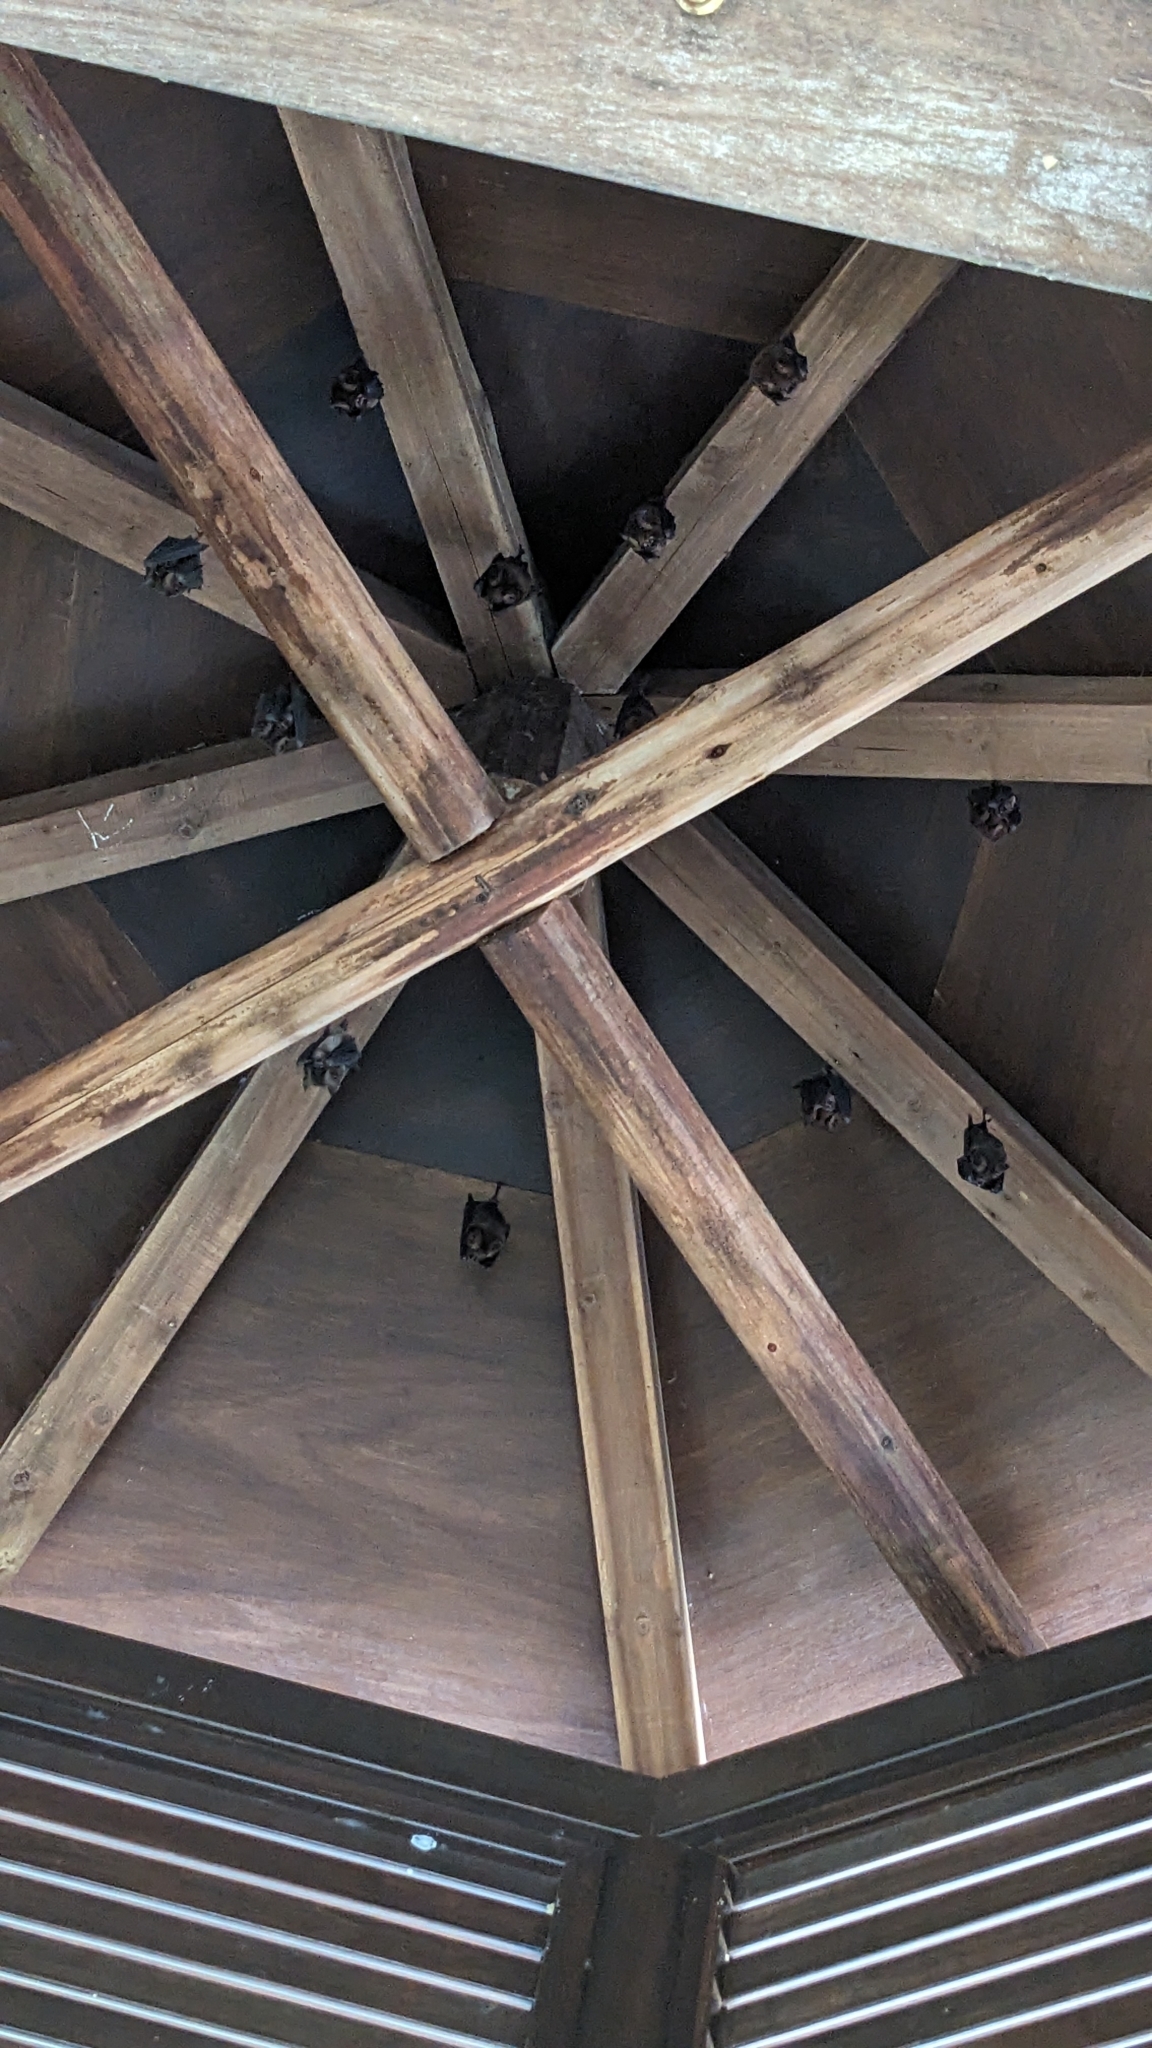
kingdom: Animalia
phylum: Chordata
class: Mammalia
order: Chiroptera
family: Hipposideridae
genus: Hipposideros
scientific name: Hipposideros armiger
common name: Great leaf-nosed bat
